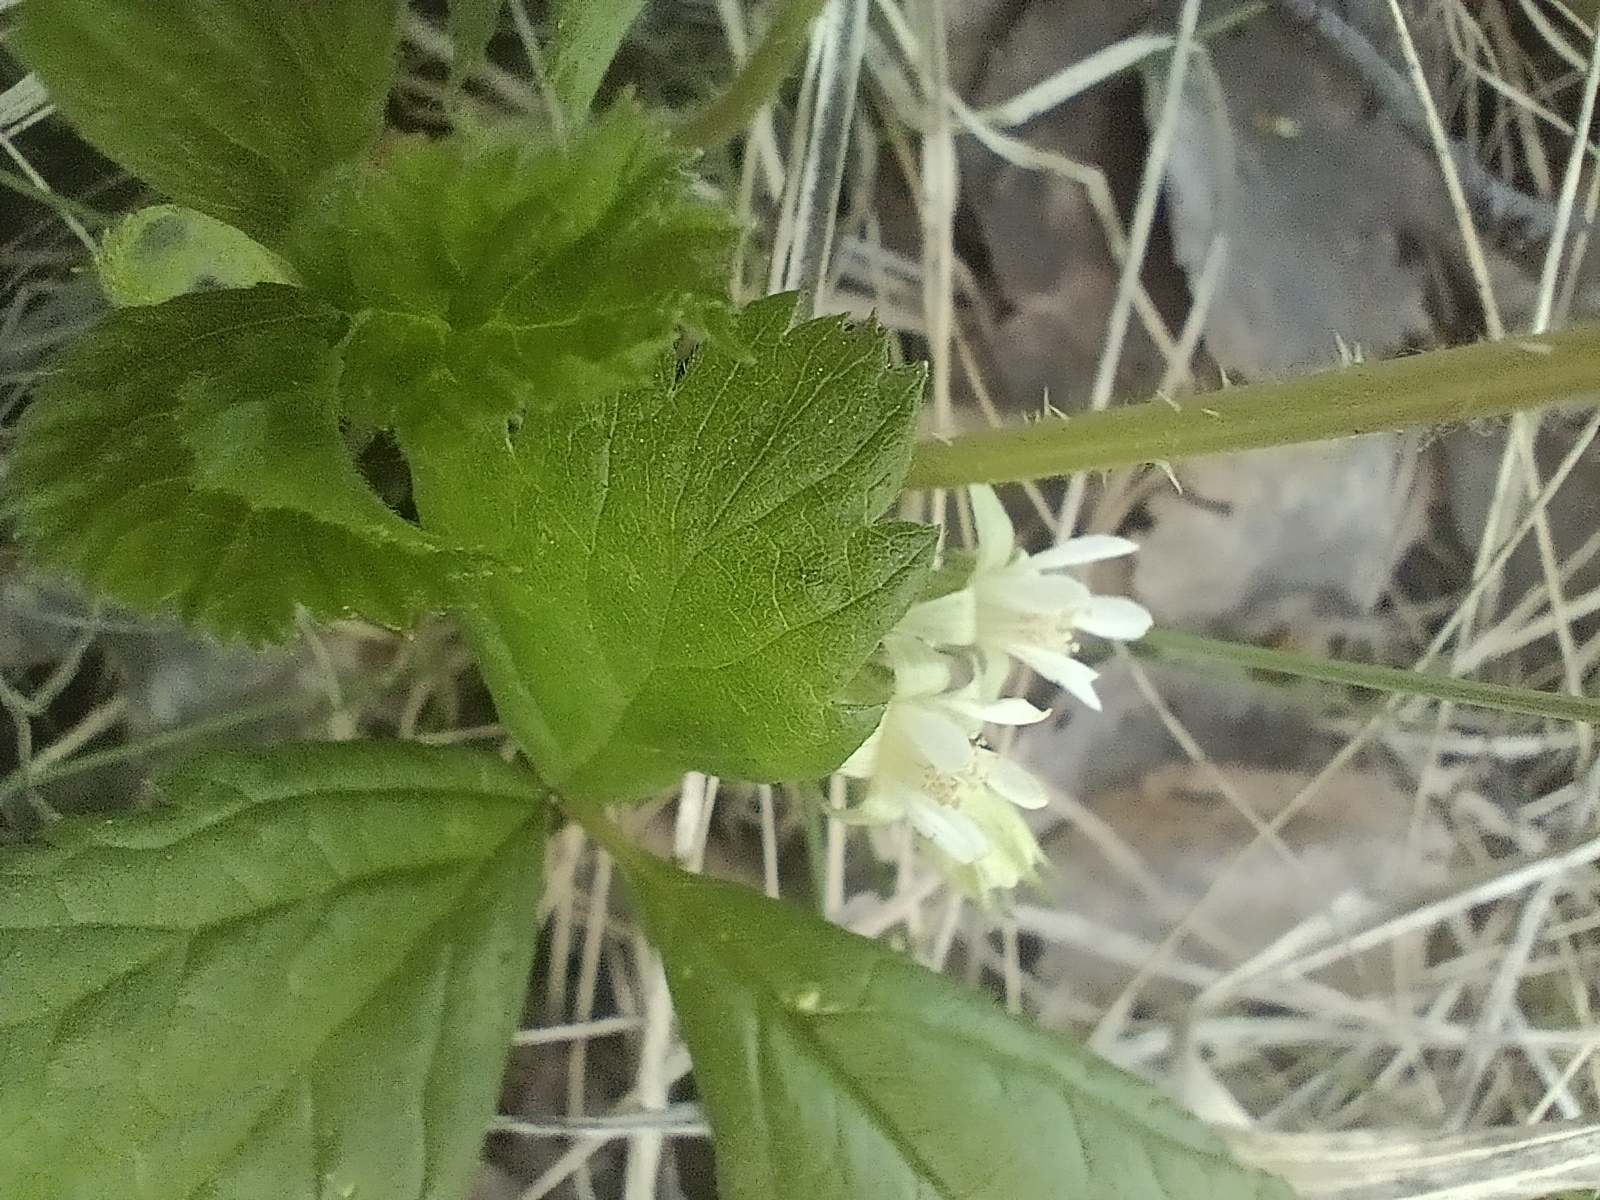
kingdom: Plantae
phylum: Tracheophyta
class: Magnoliopsida
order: Rosales
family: Rosaceae
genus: Rubus
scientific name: Rubus saxatilis
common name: Stone bramble
